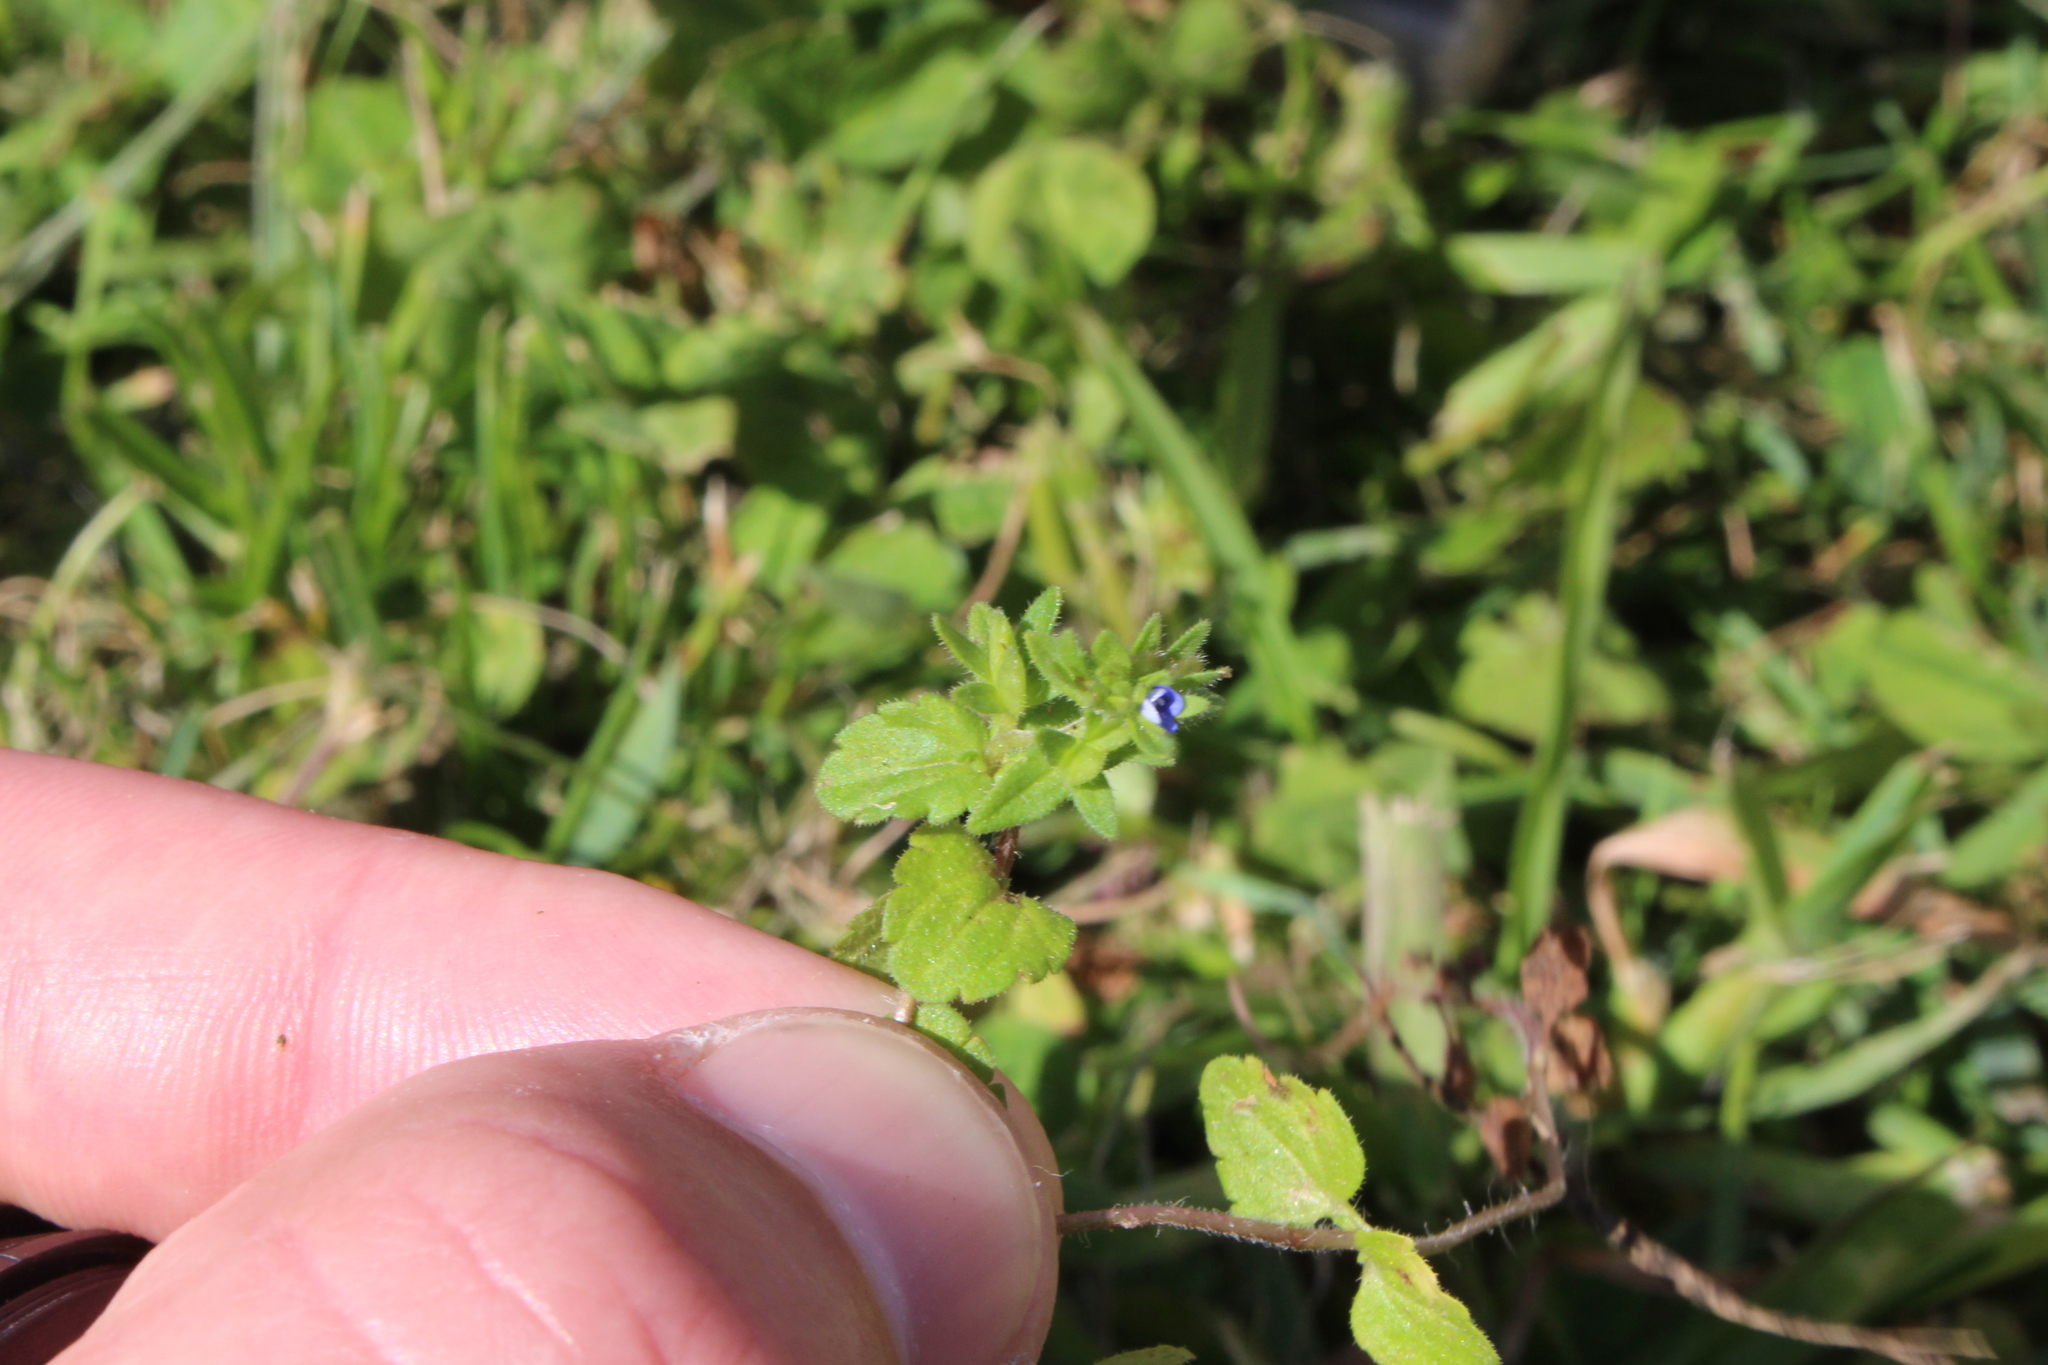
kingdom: Plantae
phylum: Tracheophyta
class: Magnoliopsida
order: Lamiales
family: Plantaginaceae
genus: Veronica
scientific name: Veronica arvensis
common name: Corn speedwell
